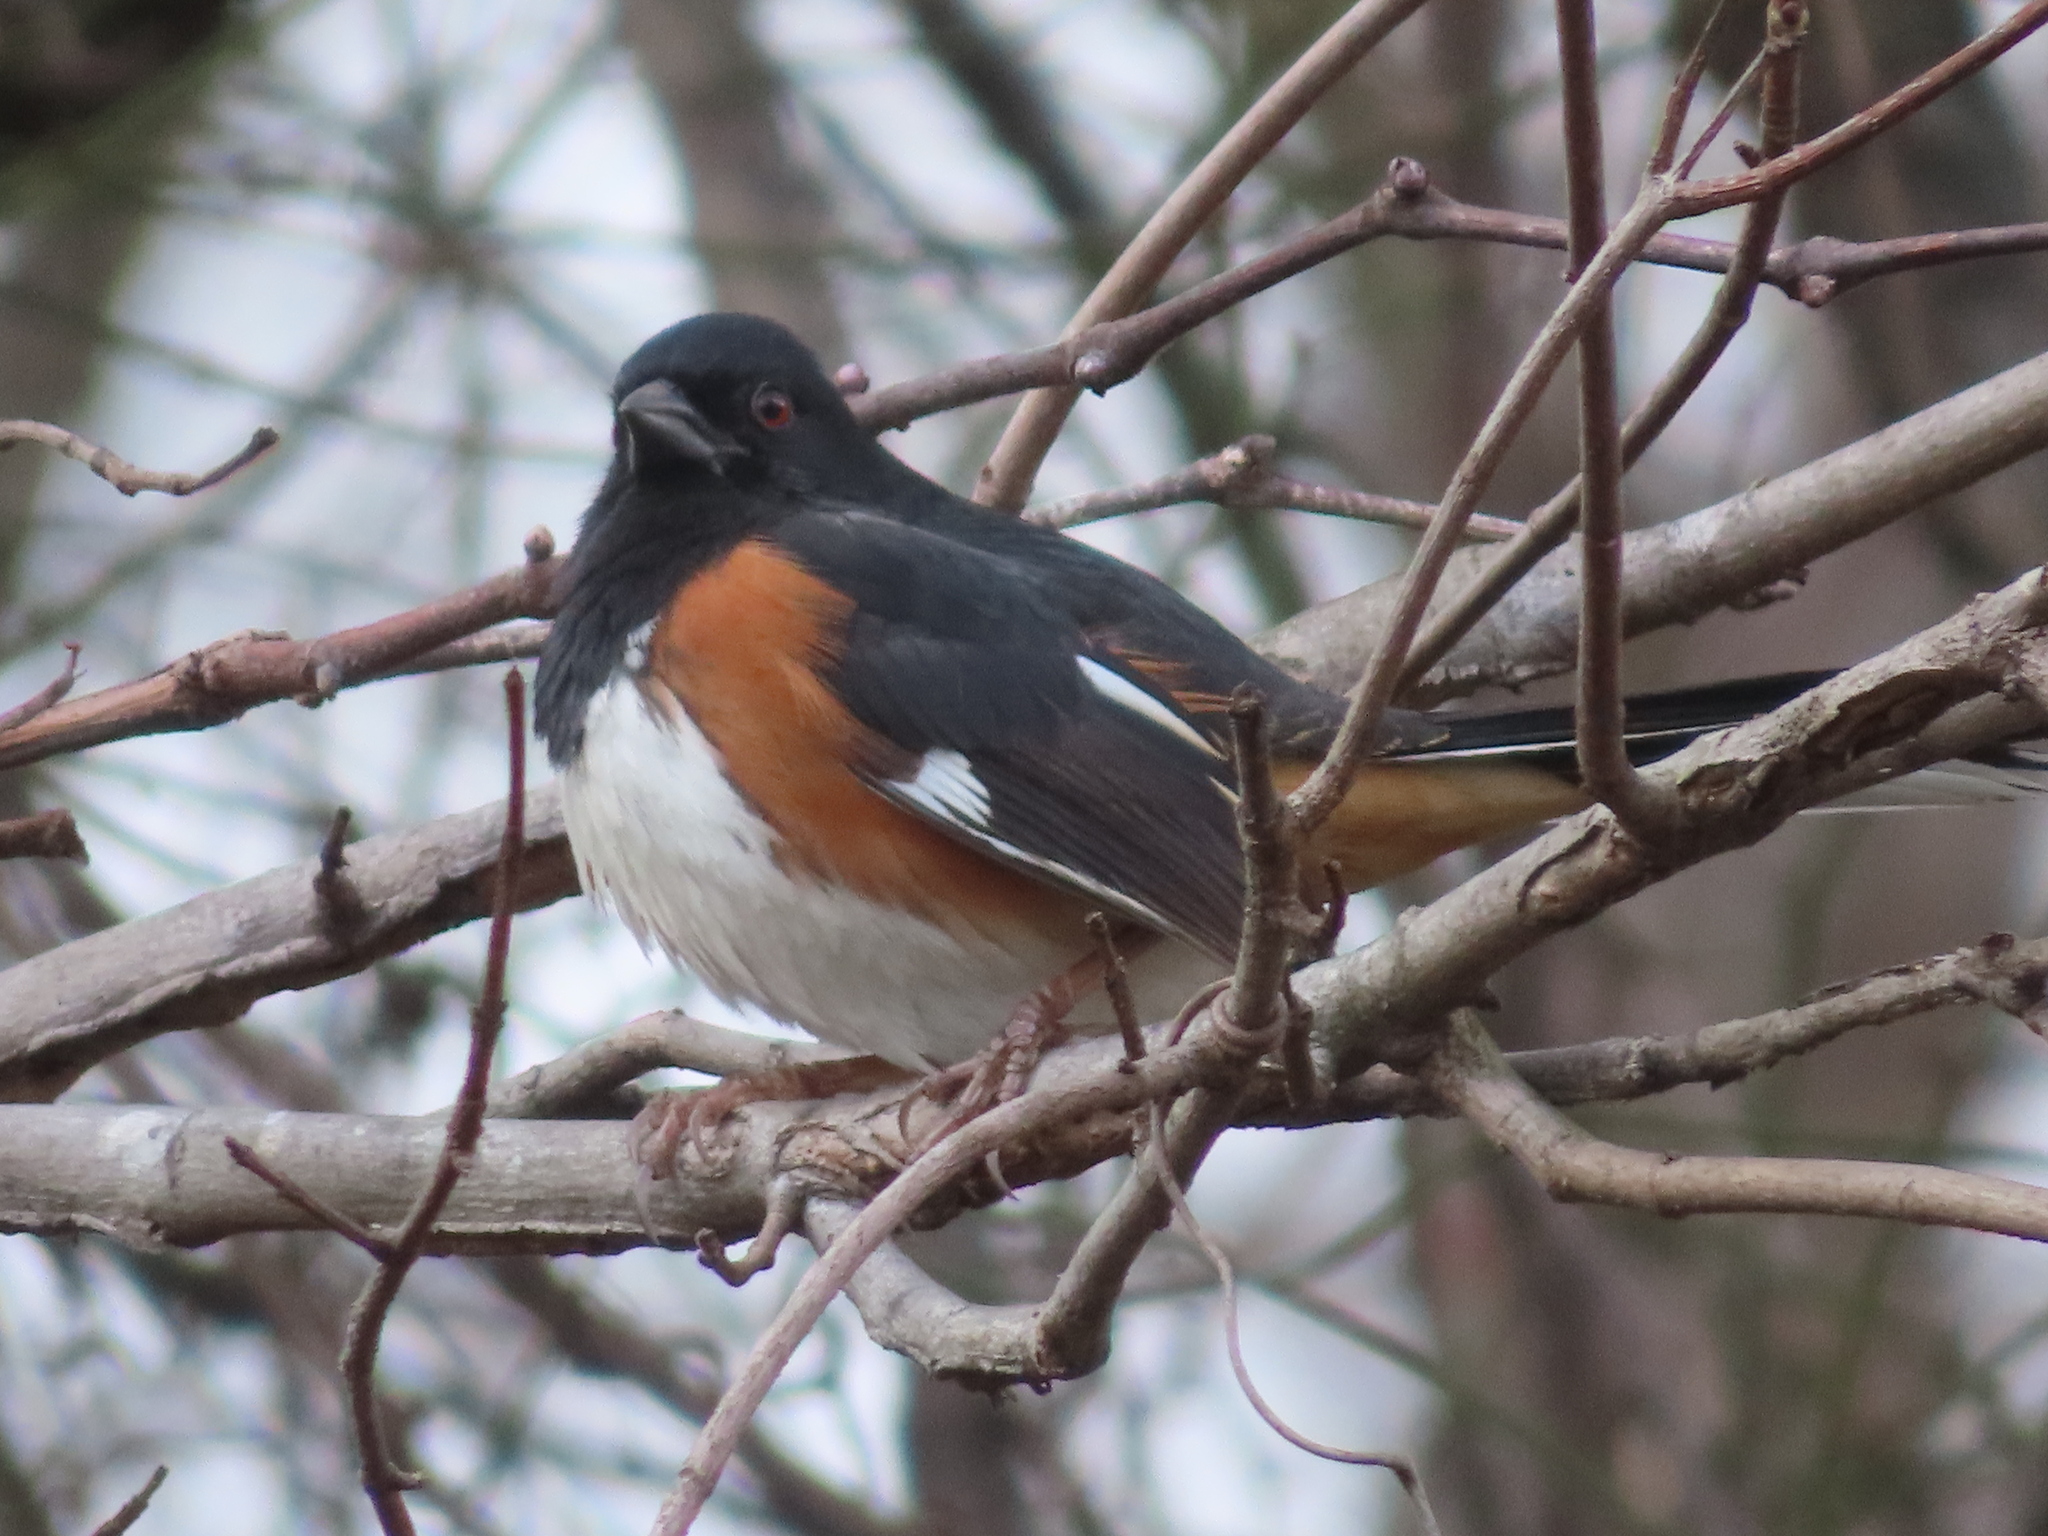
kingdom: Animalia
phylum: Chordata
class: Aves
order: Passeriformes
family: Passerellidae
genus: Pipilo
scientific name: Pipilo erythrophthalmus
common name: Eastern towhee
